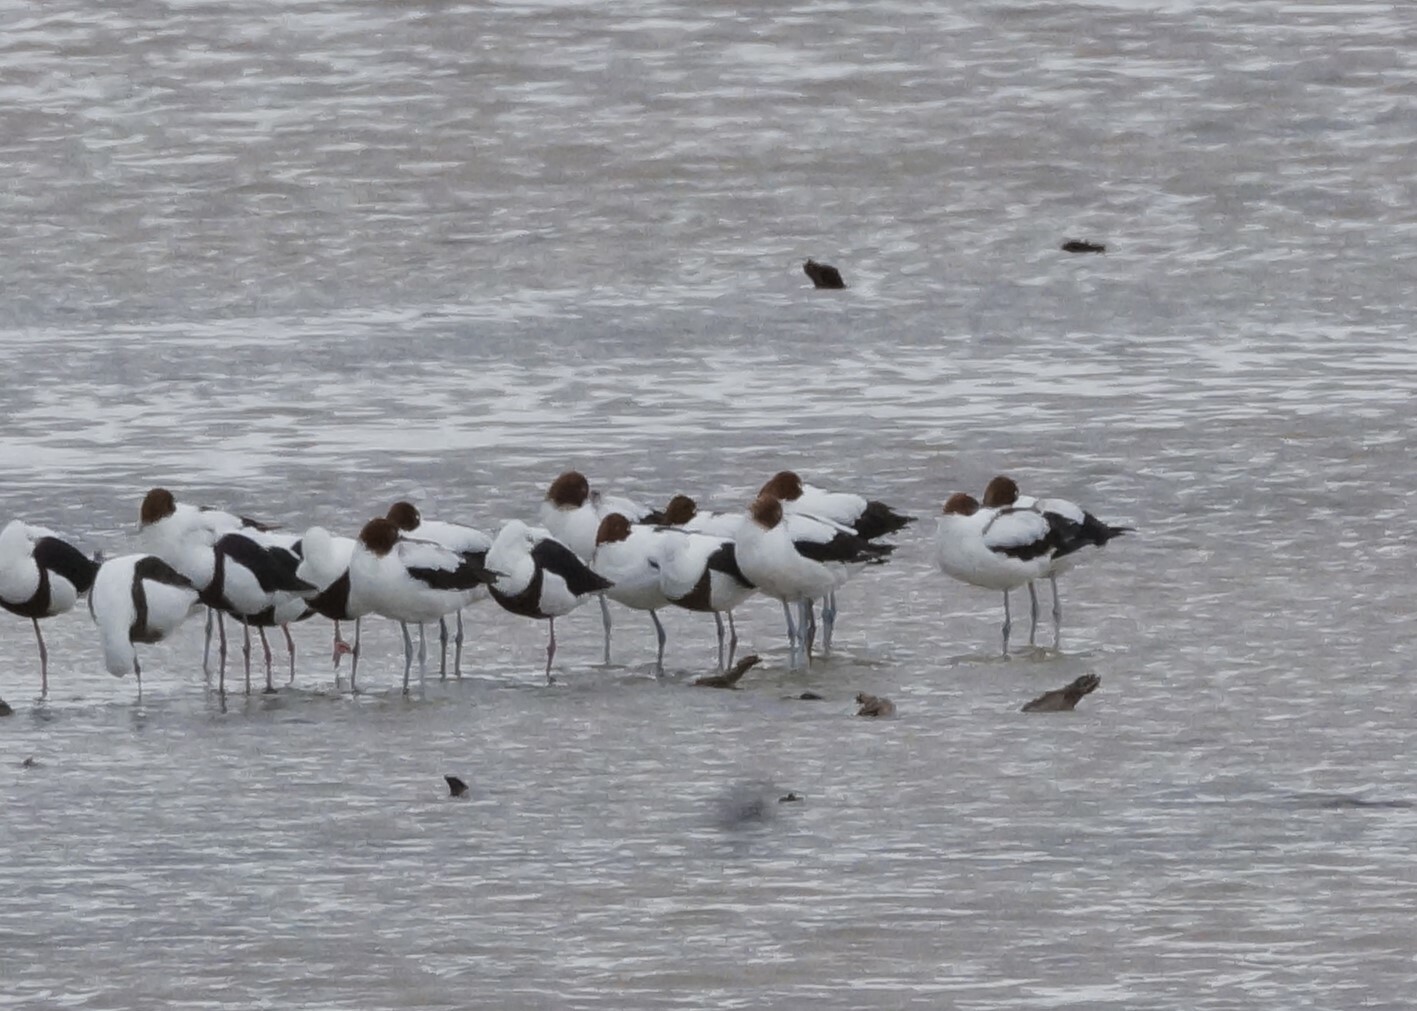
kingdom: Animalia
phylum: Chordata
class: Aves
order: Charadriiformes
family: Recurvirostridae
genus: Recurvirostra
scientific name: Recurvirostra novaehollandiae
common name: Red-necked avocet
